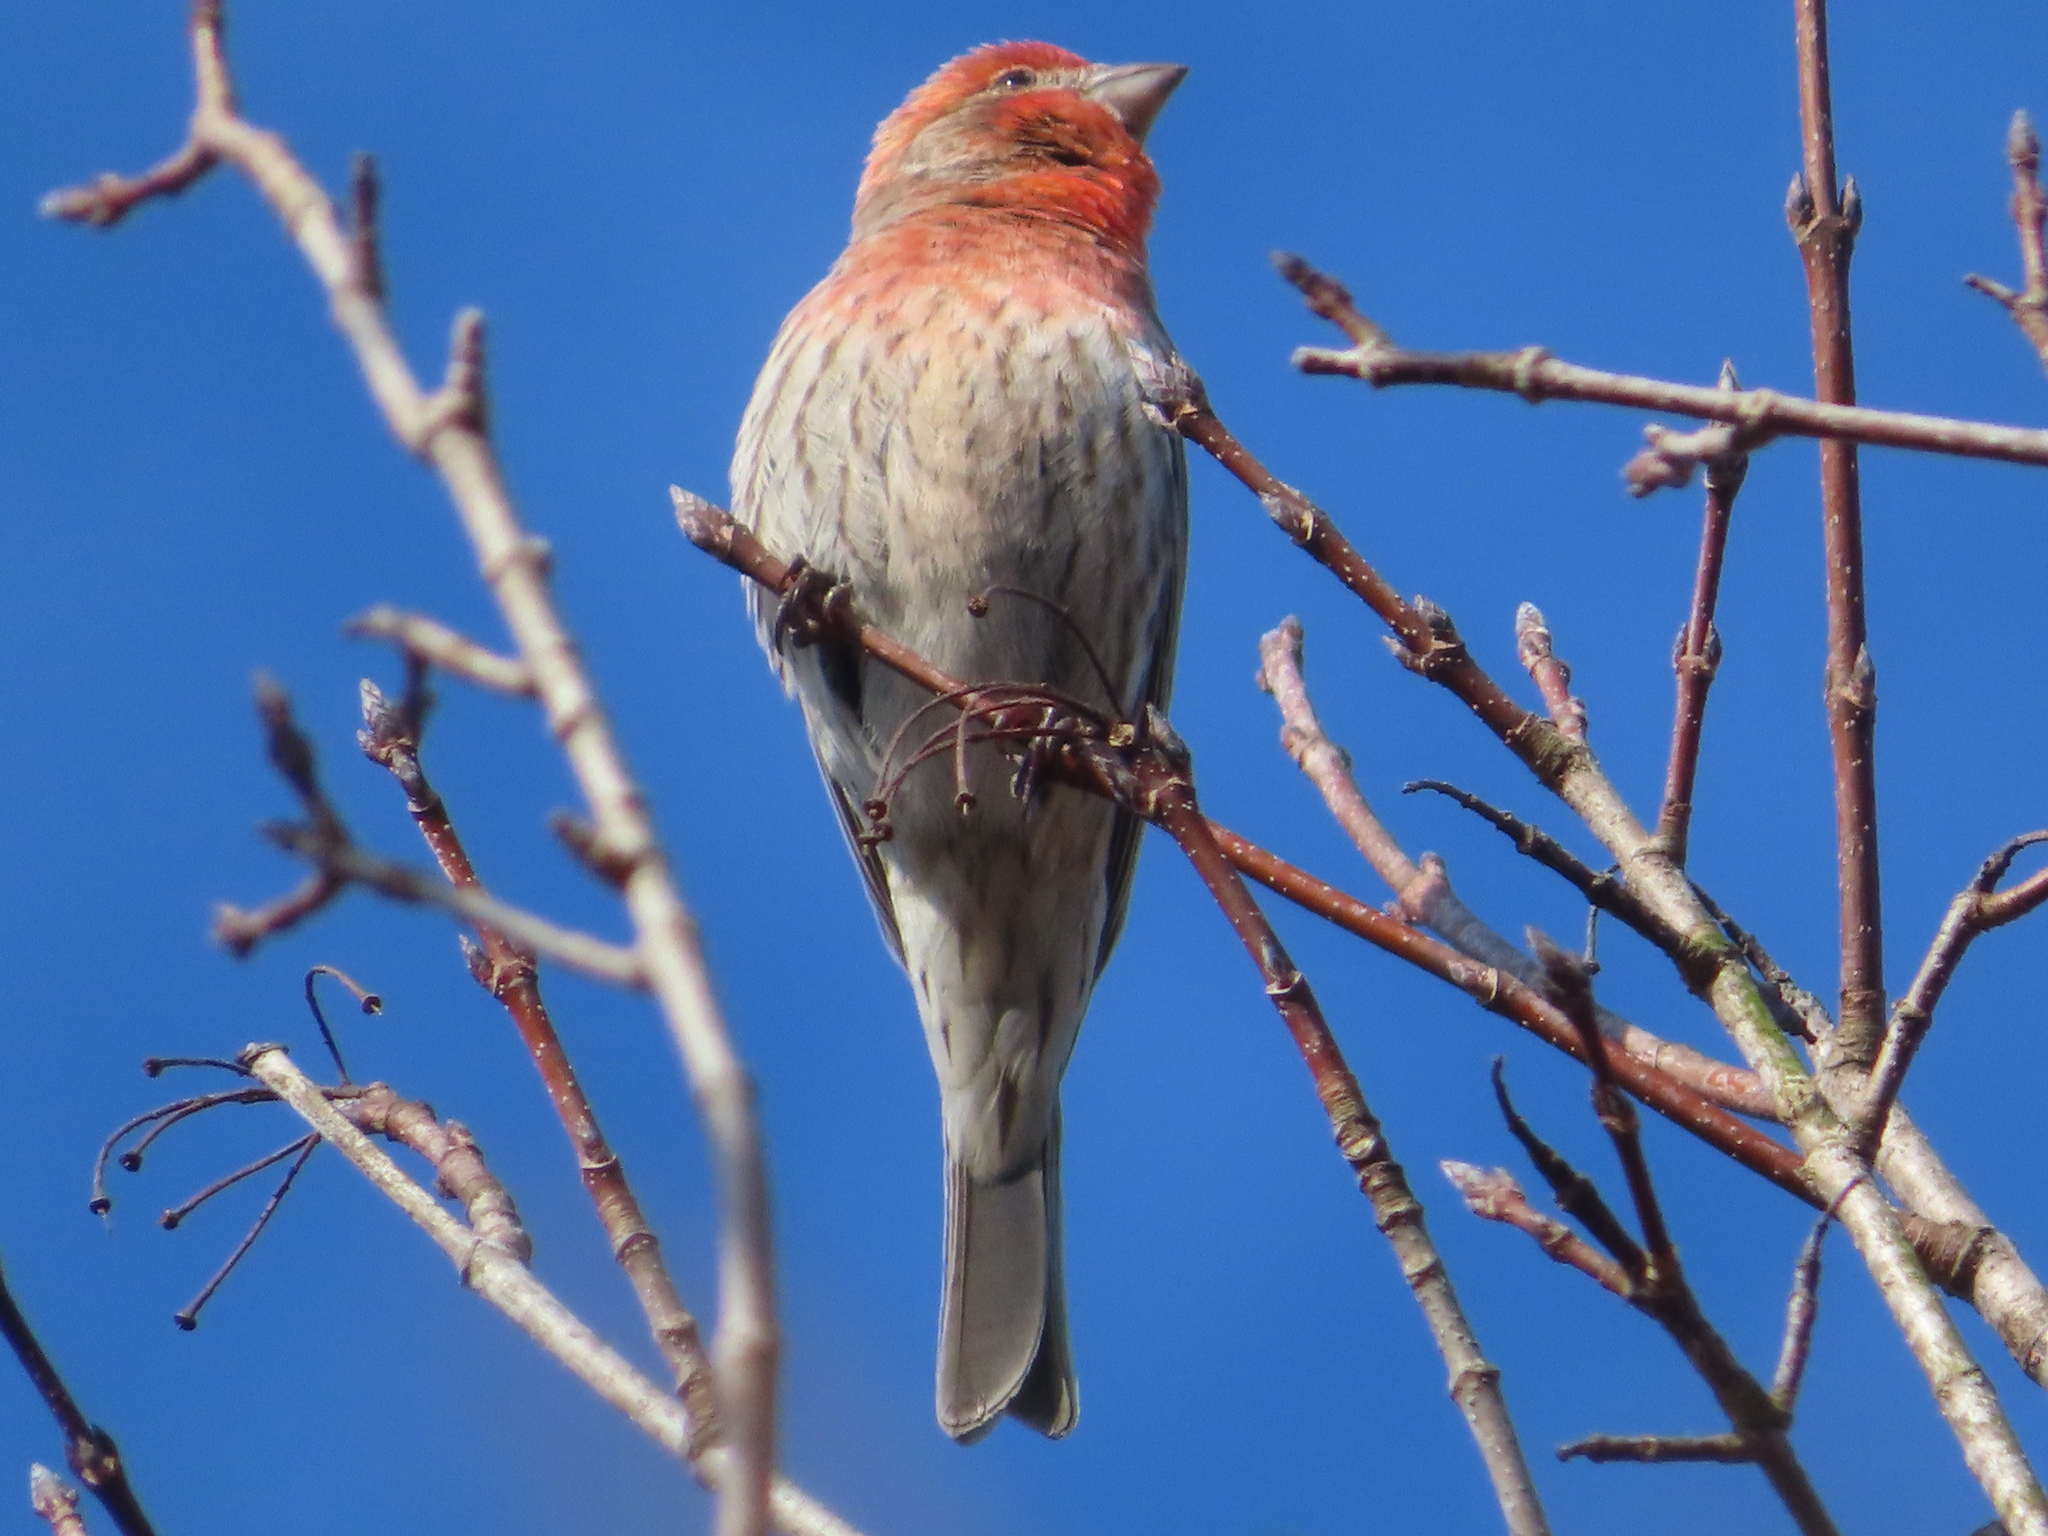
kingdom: Animalia
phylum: Chordata
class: Aves
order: Passeriformes
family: Fringillidae
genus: Haemorhous
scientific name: Haemorhous mexicanus
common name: House finch
